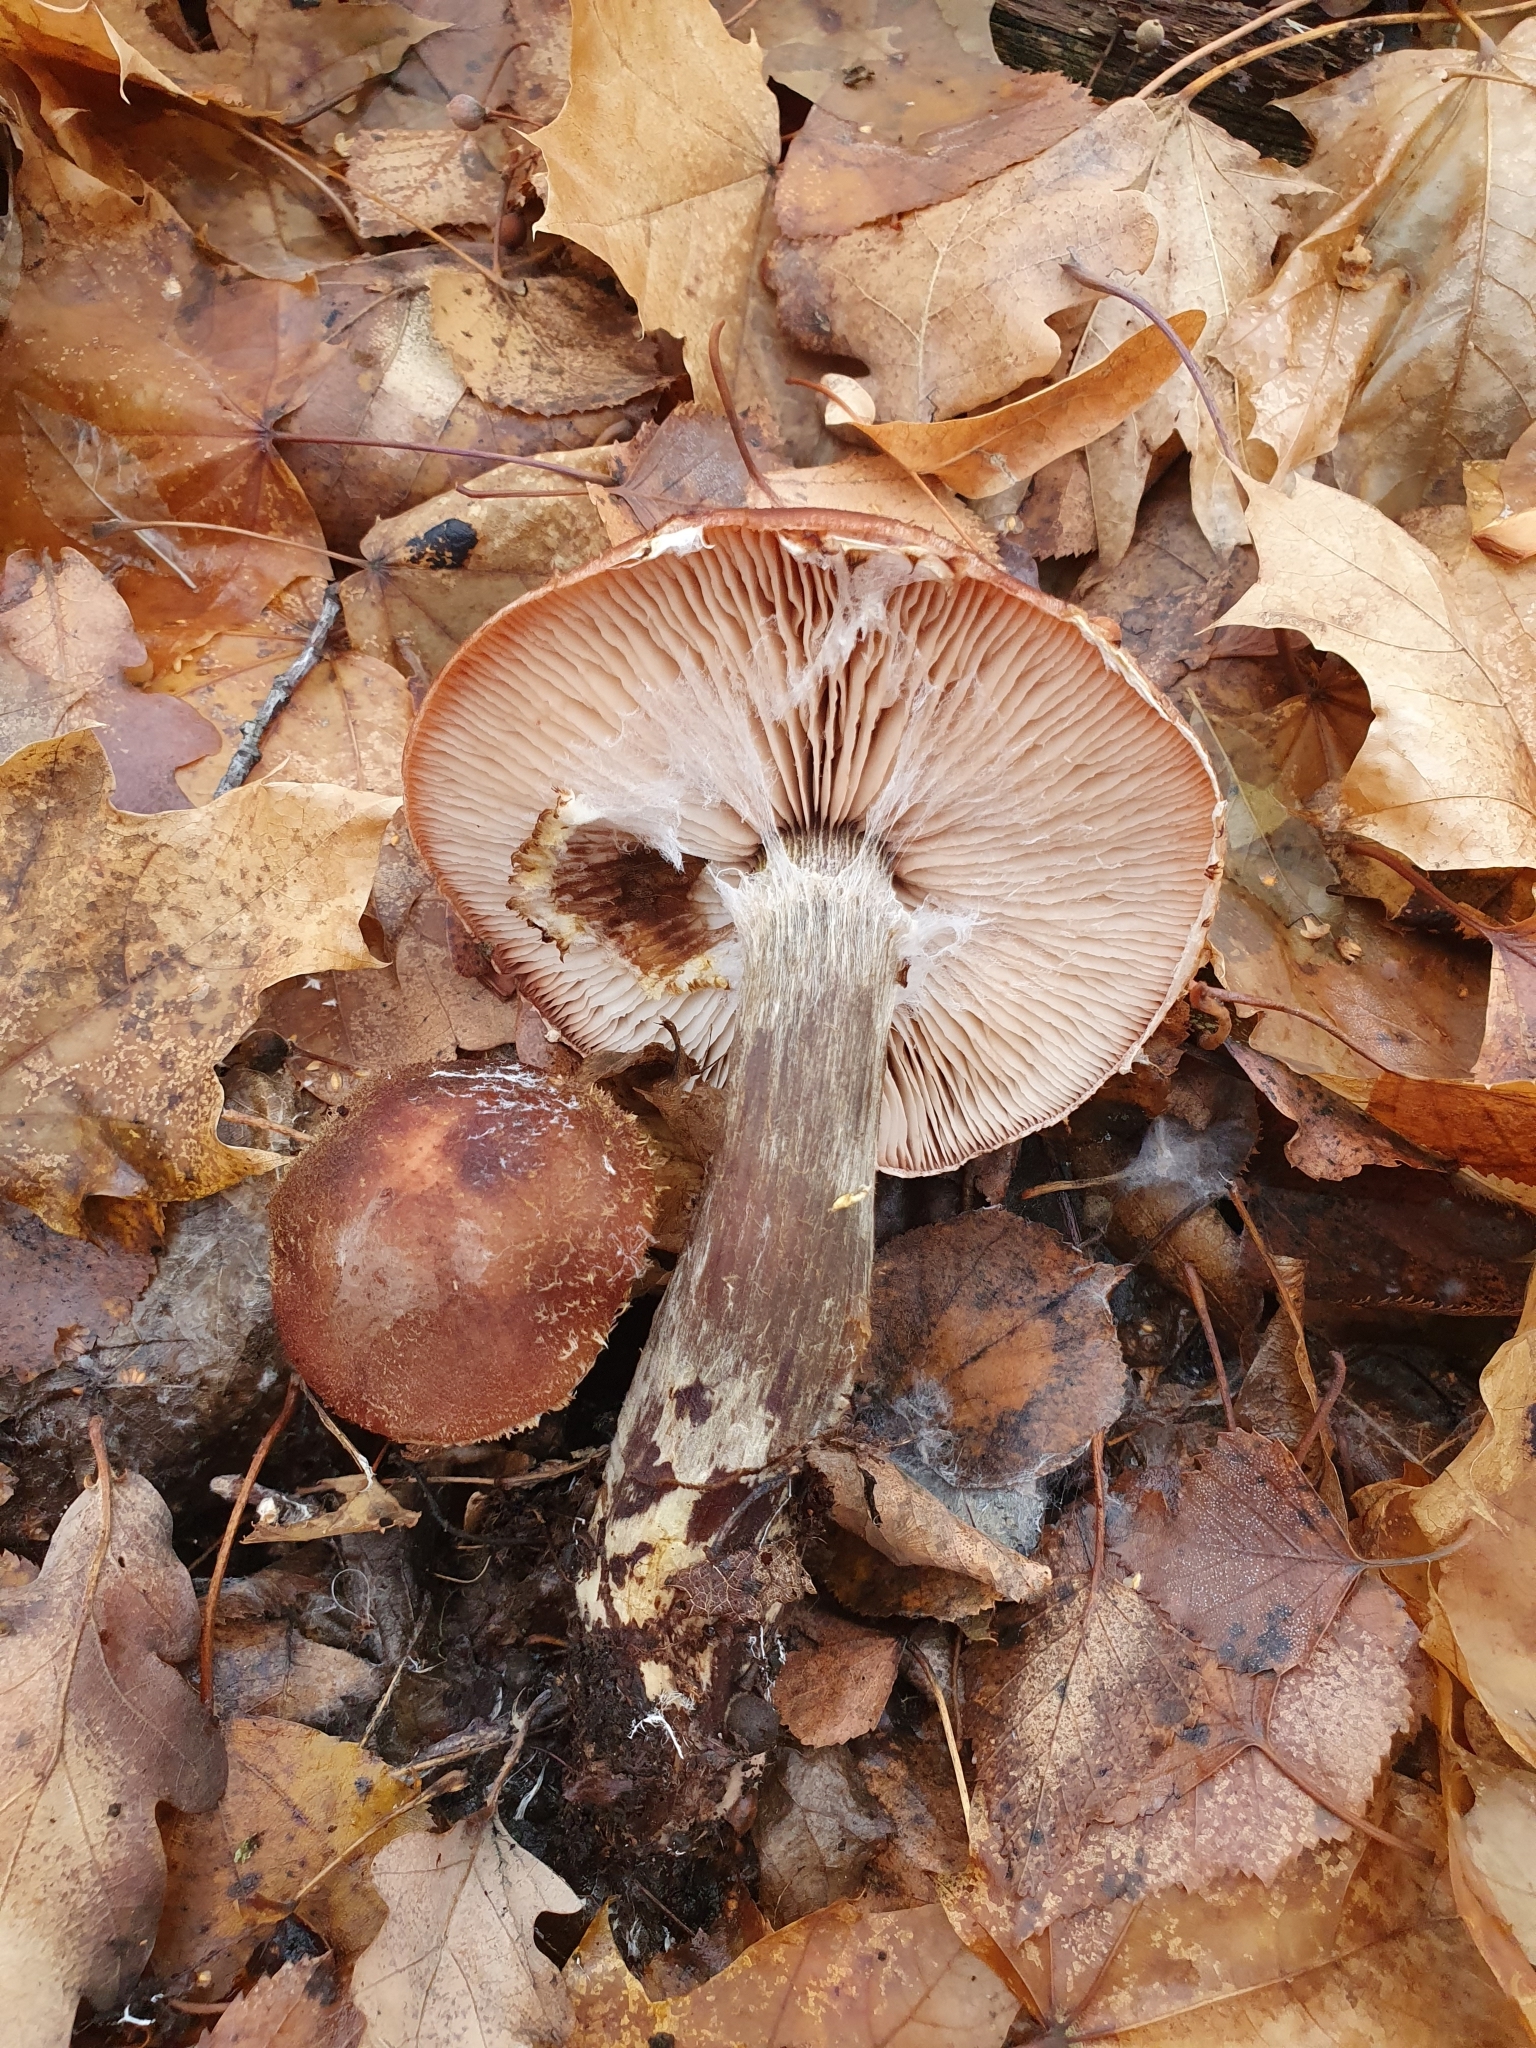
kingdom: Fungi
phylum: Basidiomycota
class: Agaricomycetes
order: Agaricales
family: Physalacriaceae
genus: Armillaria
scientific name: Armillaria ostoyae
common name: Dark honey fungus
